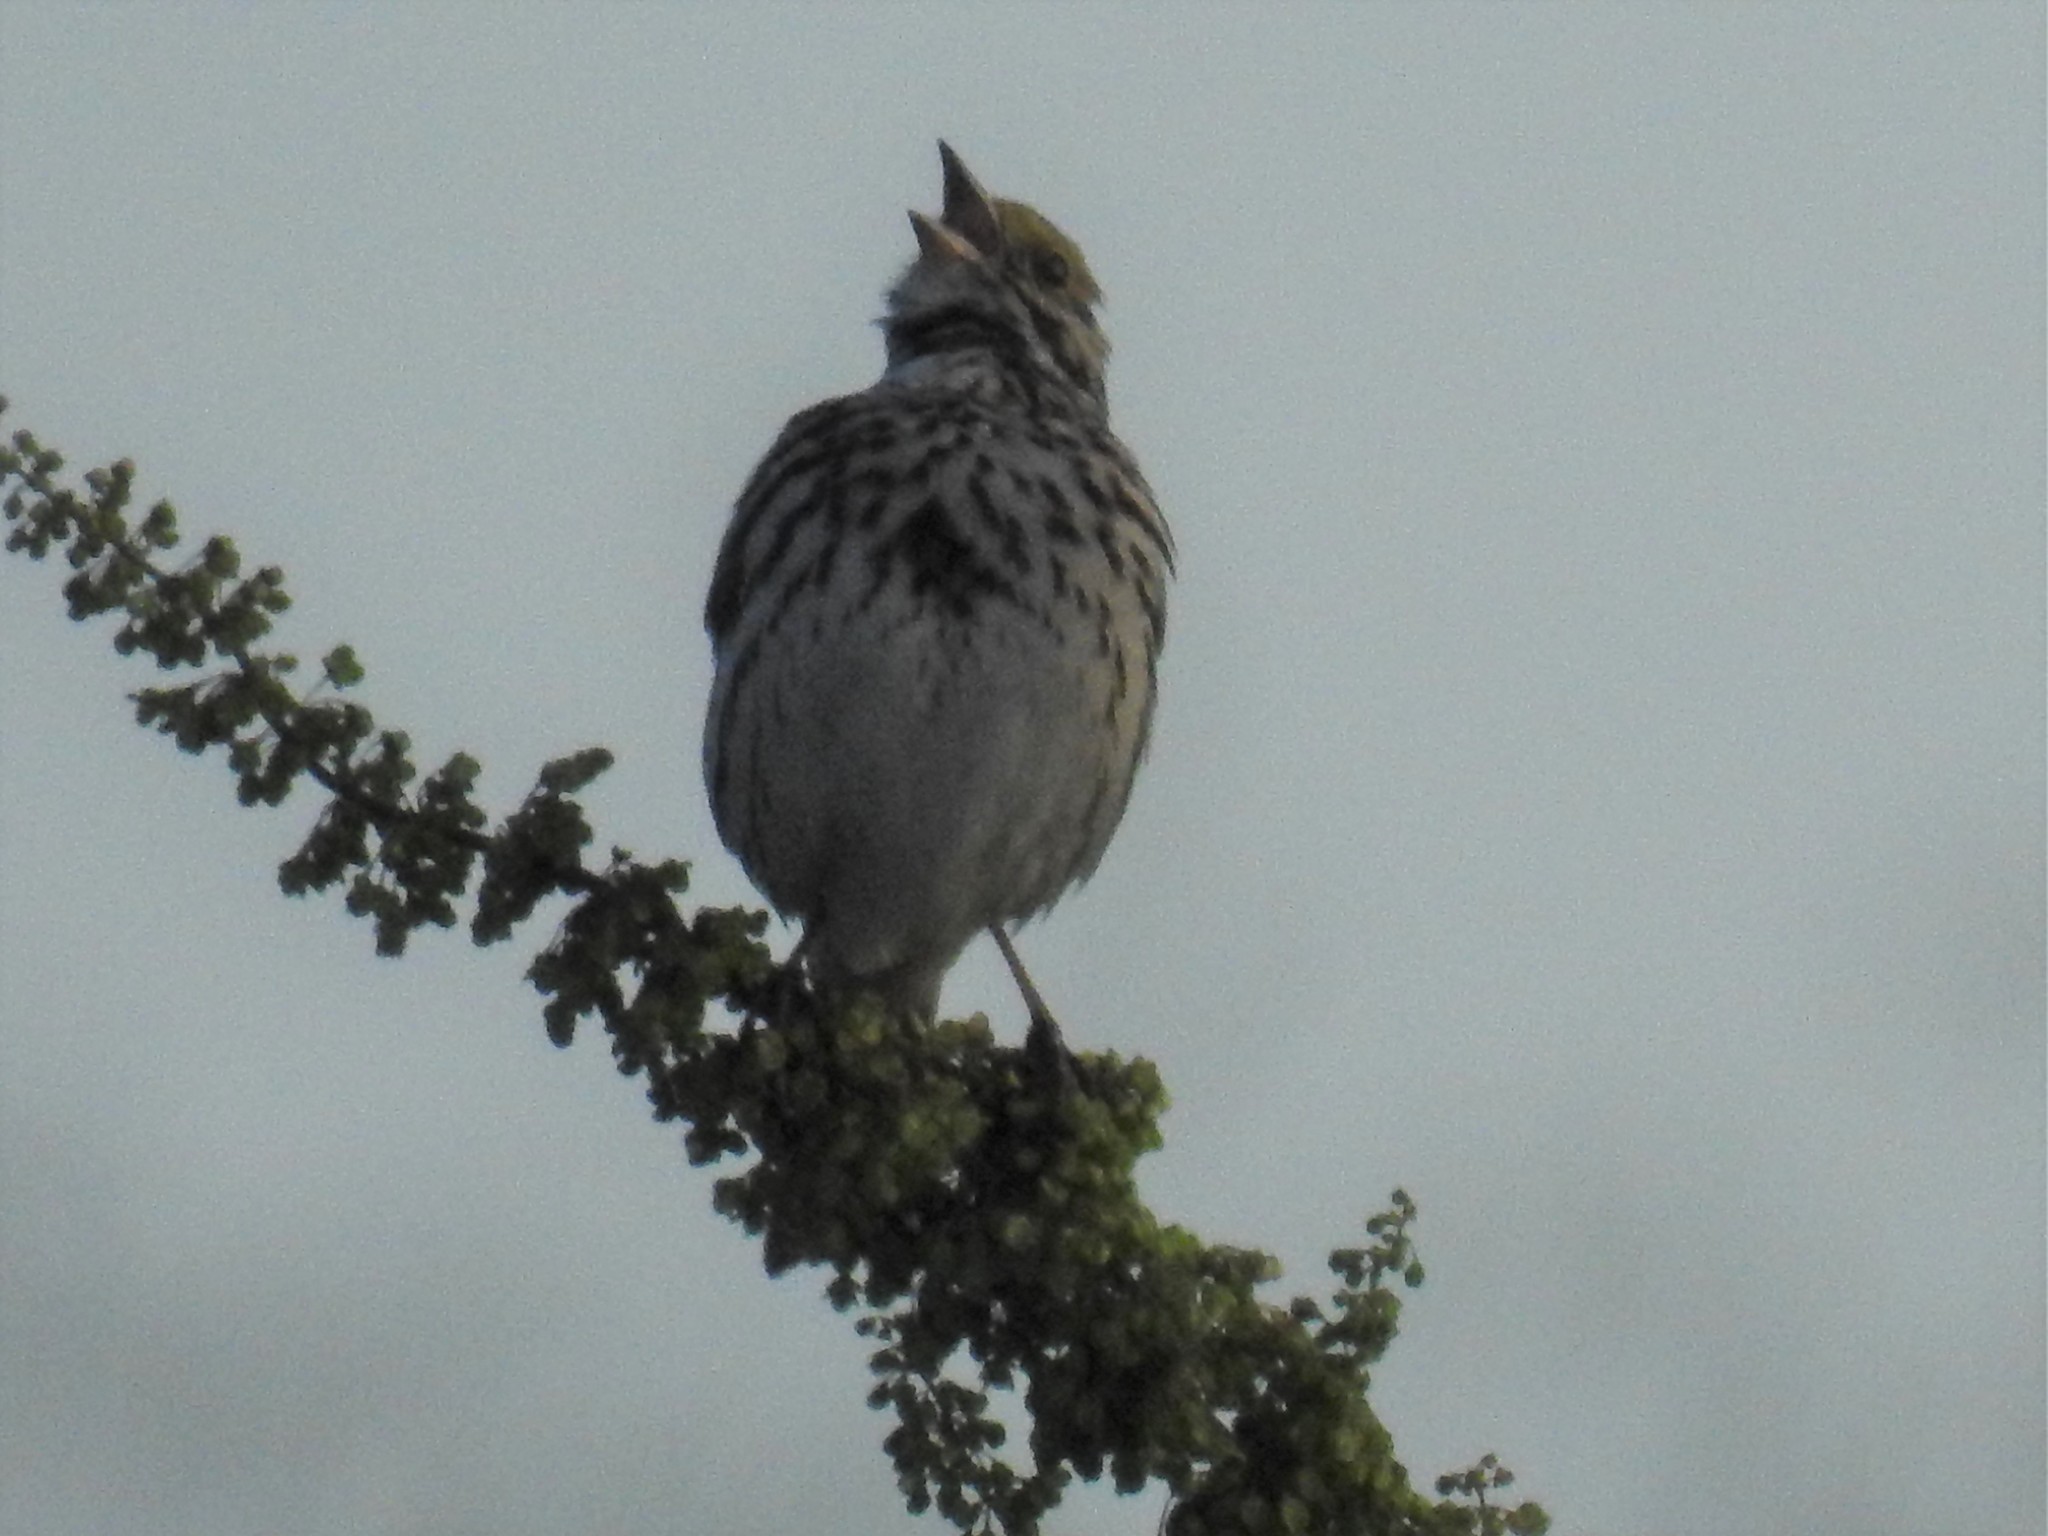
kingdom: Animalia
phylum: Chordata
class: Aves
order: Passeriformes
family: Passerellidae
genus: Passerculus
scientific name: Passerculus sandwichensis
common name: Savannah sparrow
